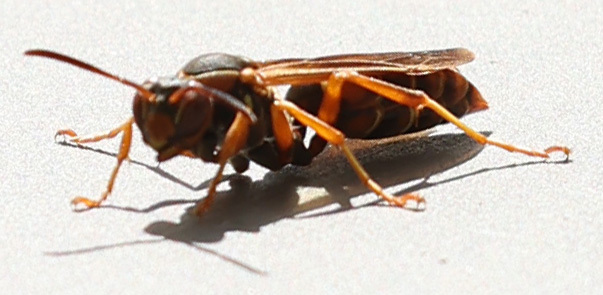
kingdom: Animalia
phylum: Arthropoda
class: Insecta
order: Hymenoptera
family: Eumenidae
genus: Polistes
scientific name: Polistes fuscatus
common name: Dark paper wasp
